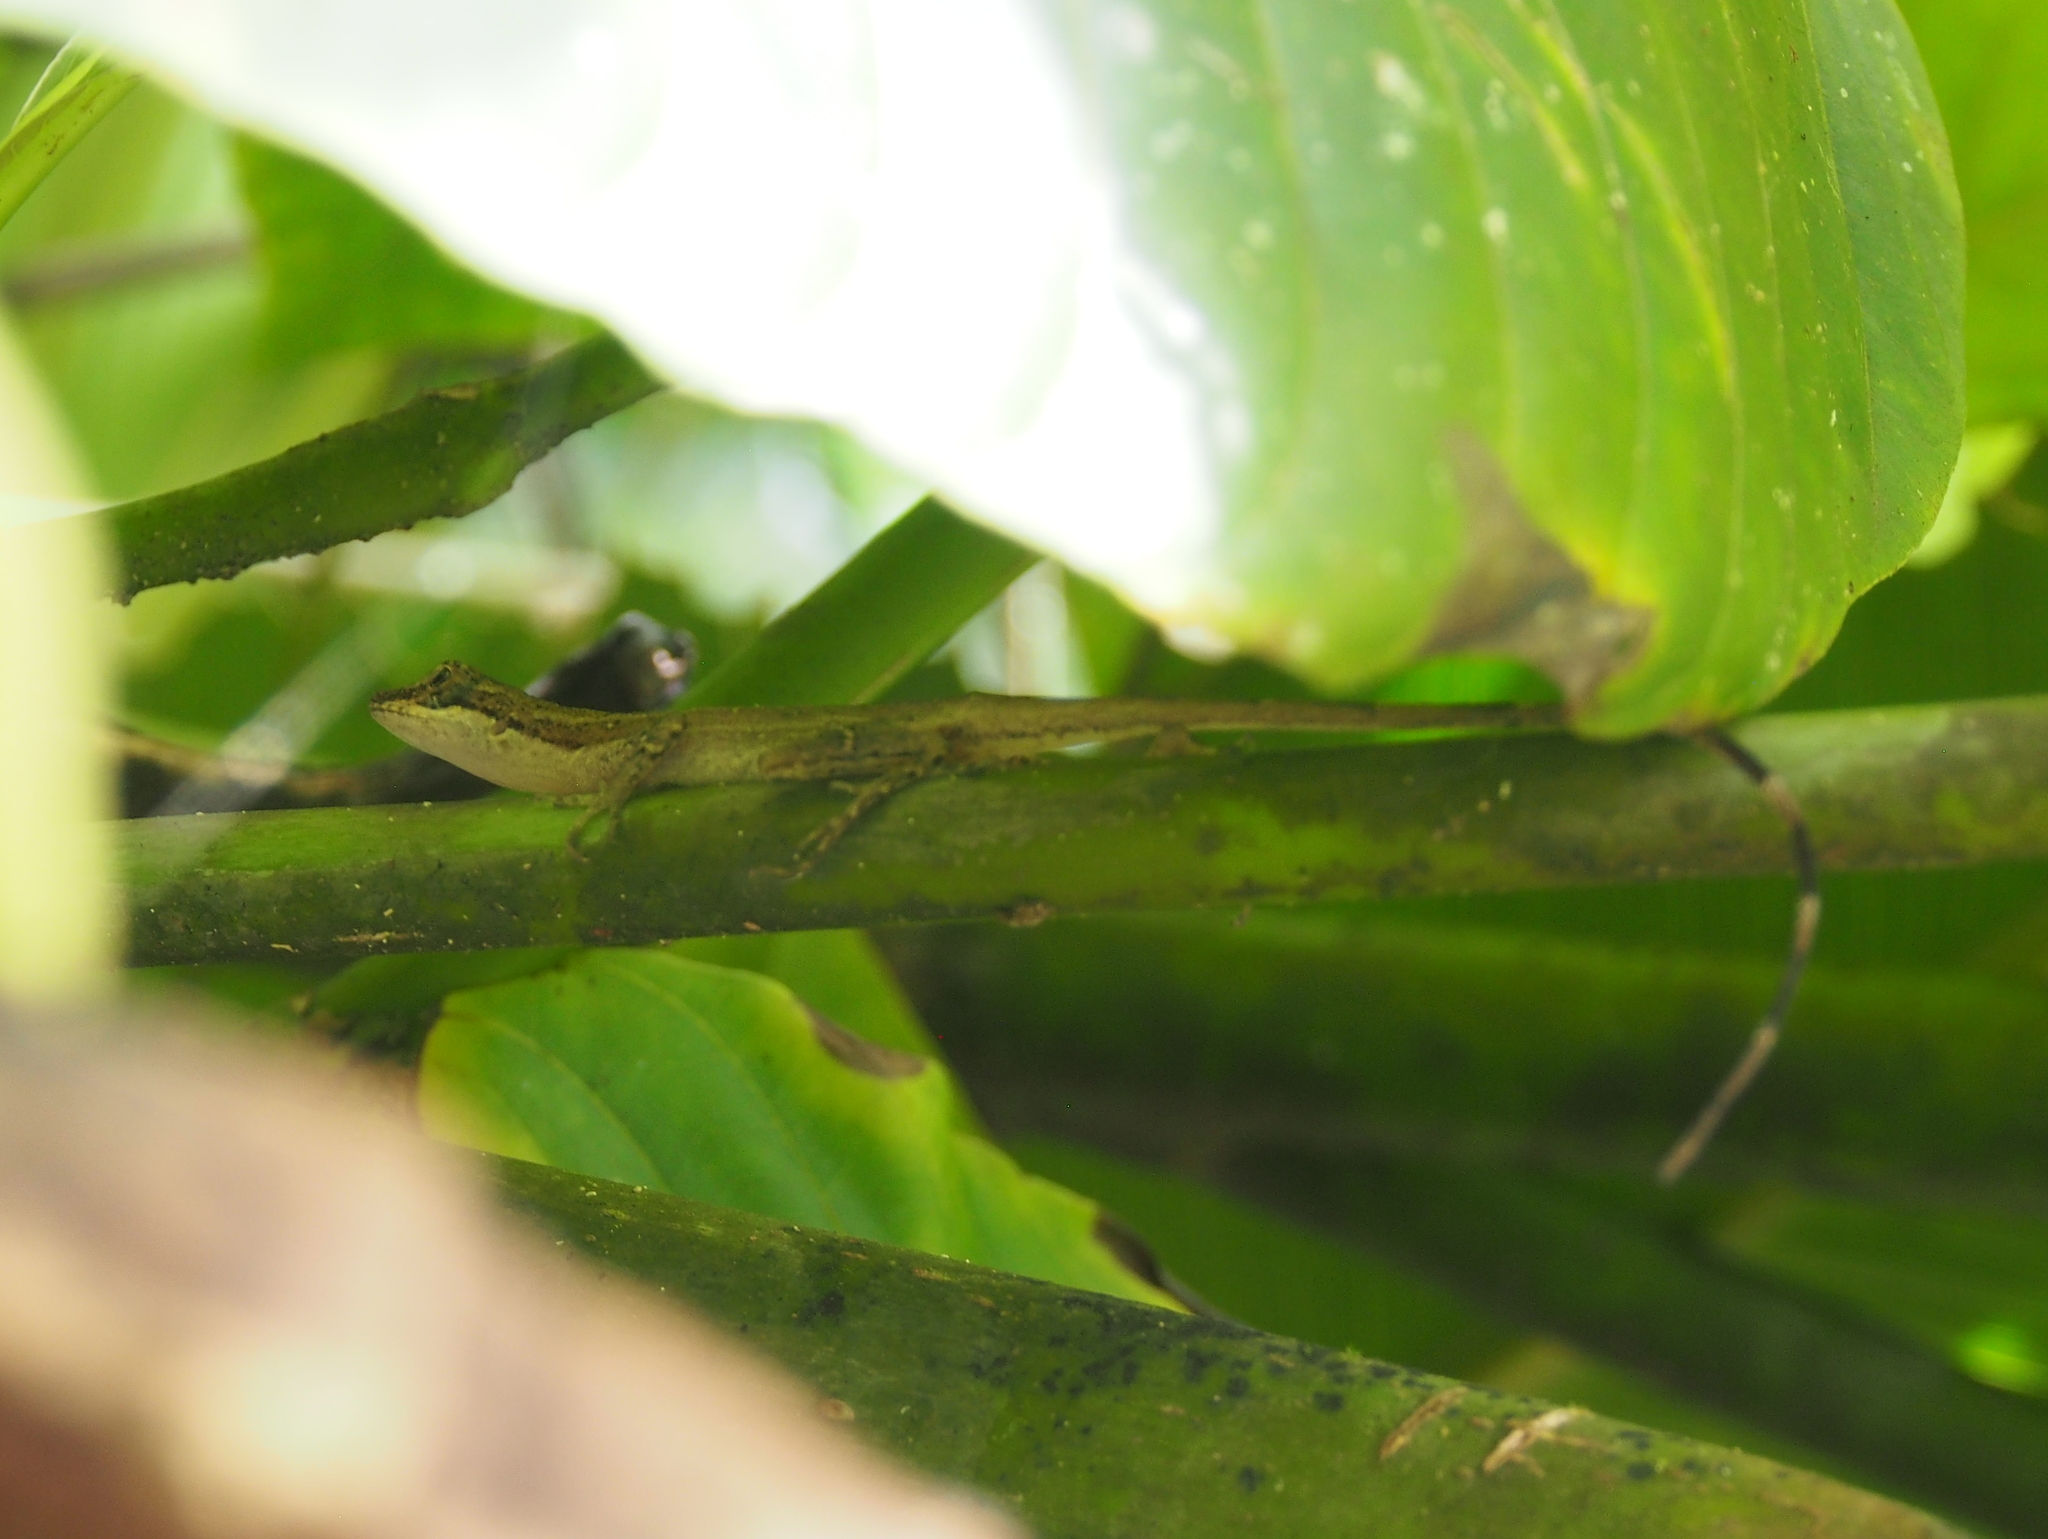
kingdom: Animalia
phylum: Chordata
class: Squamata
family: Dactyloidae
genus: Anolis
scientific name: Anolis limifrons
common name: Border anole
